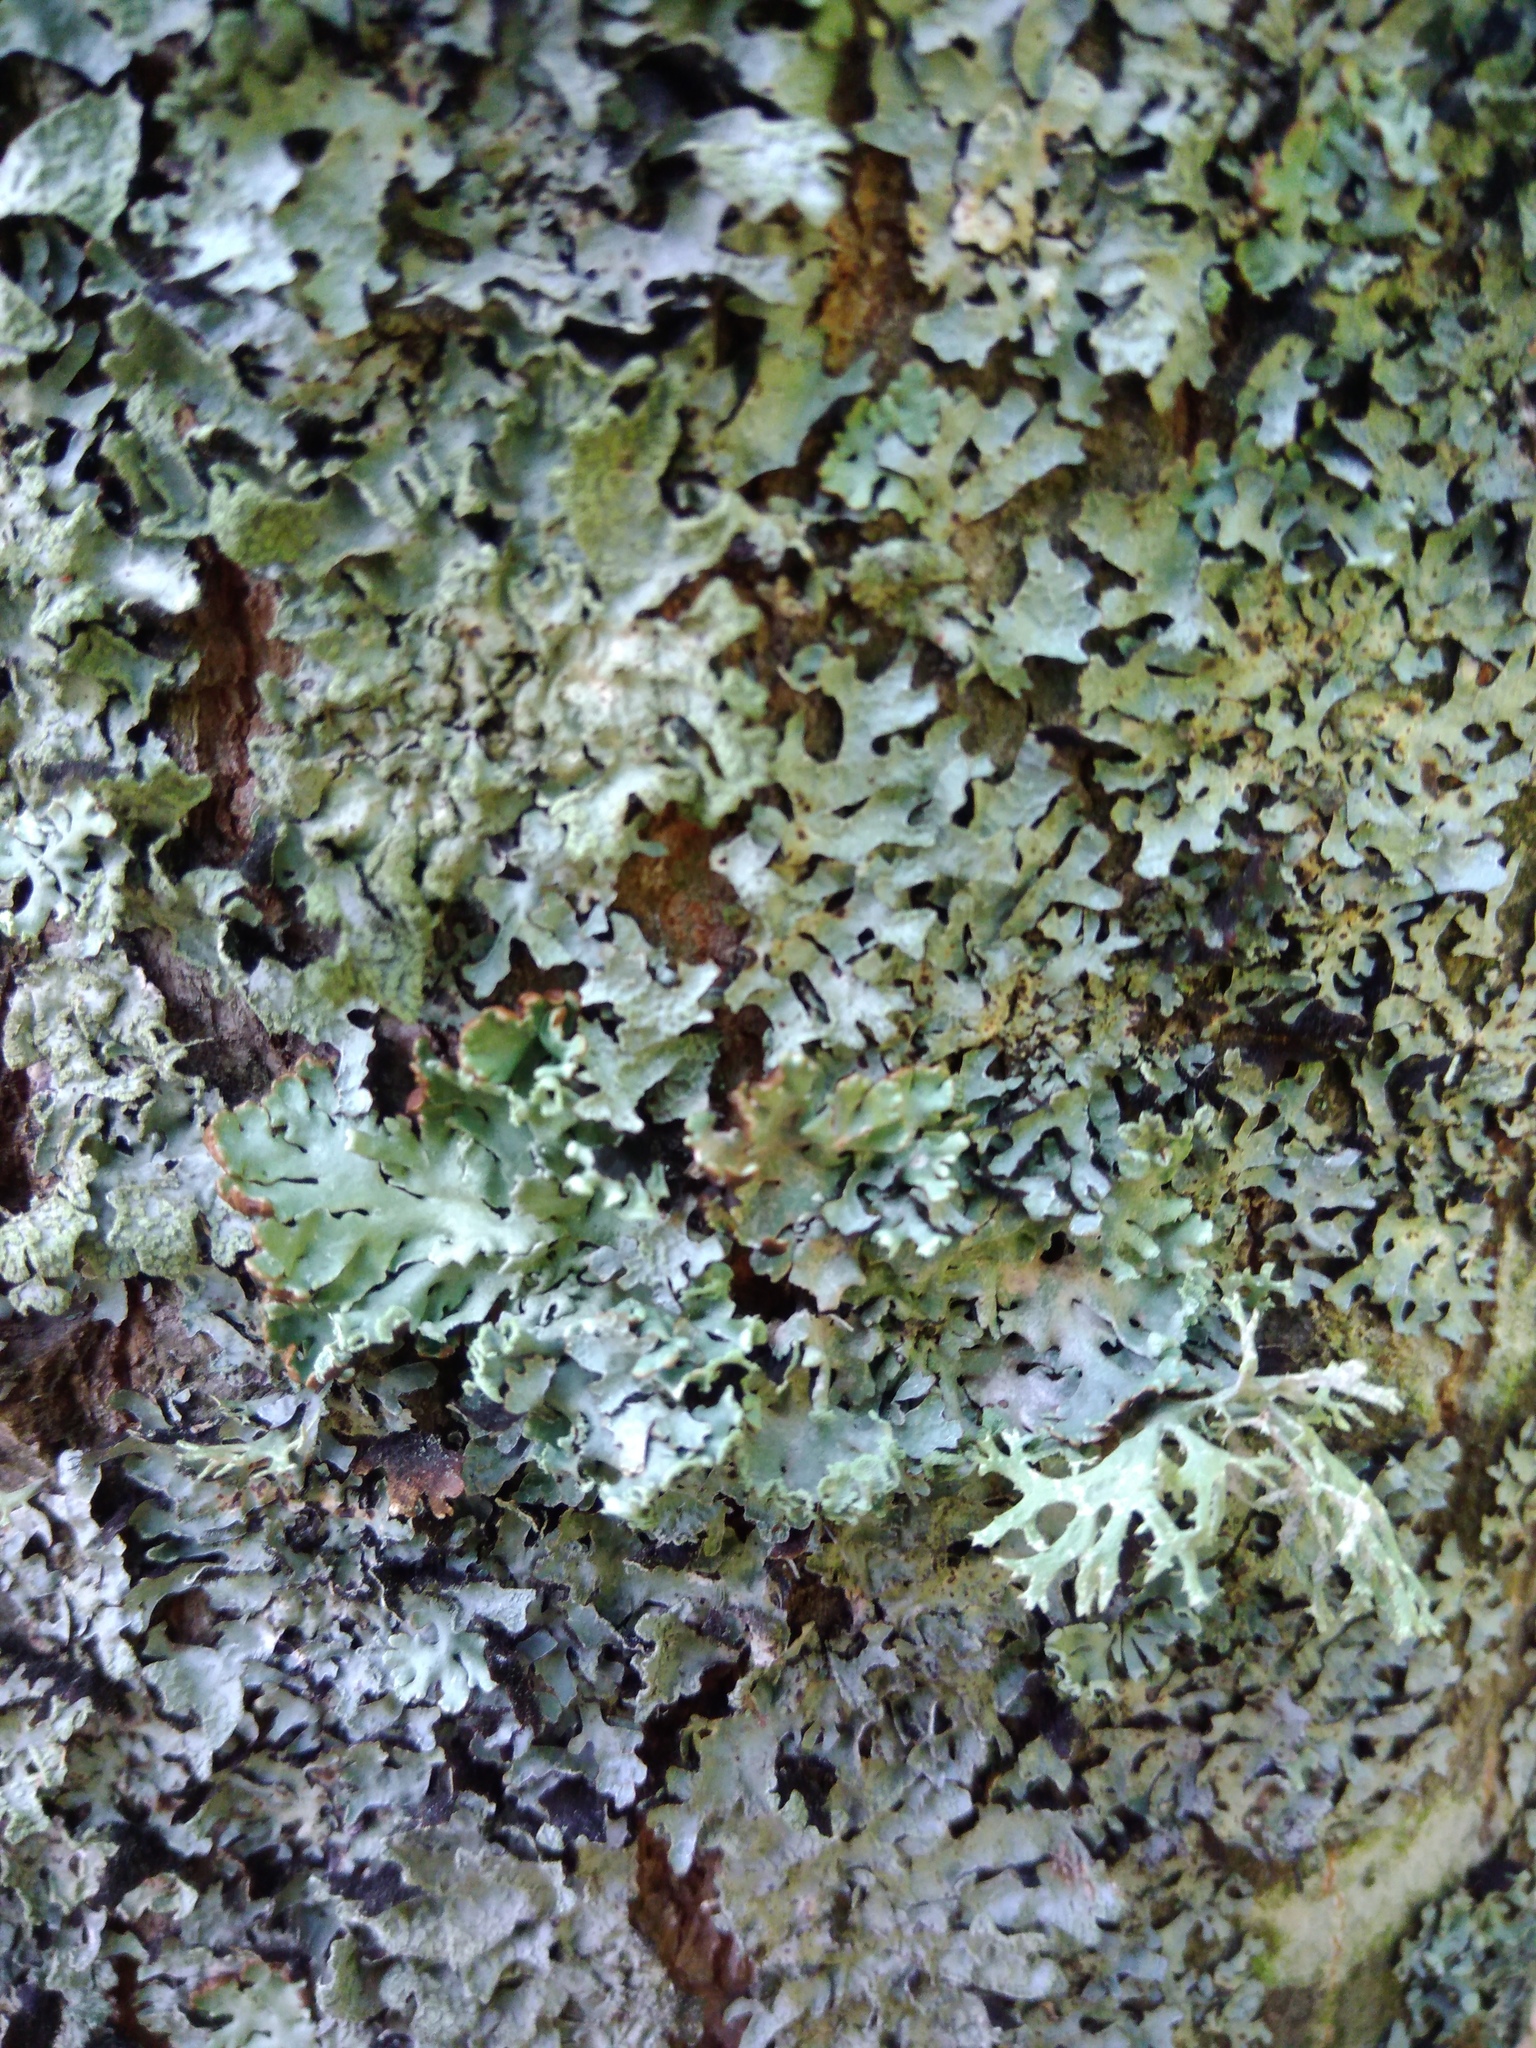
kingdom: Fungi
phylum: Ascomycota
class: Lecanoromycetes
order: Lecanorales
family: Parmeliaceae
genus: Hypogymnia
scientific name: Hypogymnia physodes
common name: Dark crottle
